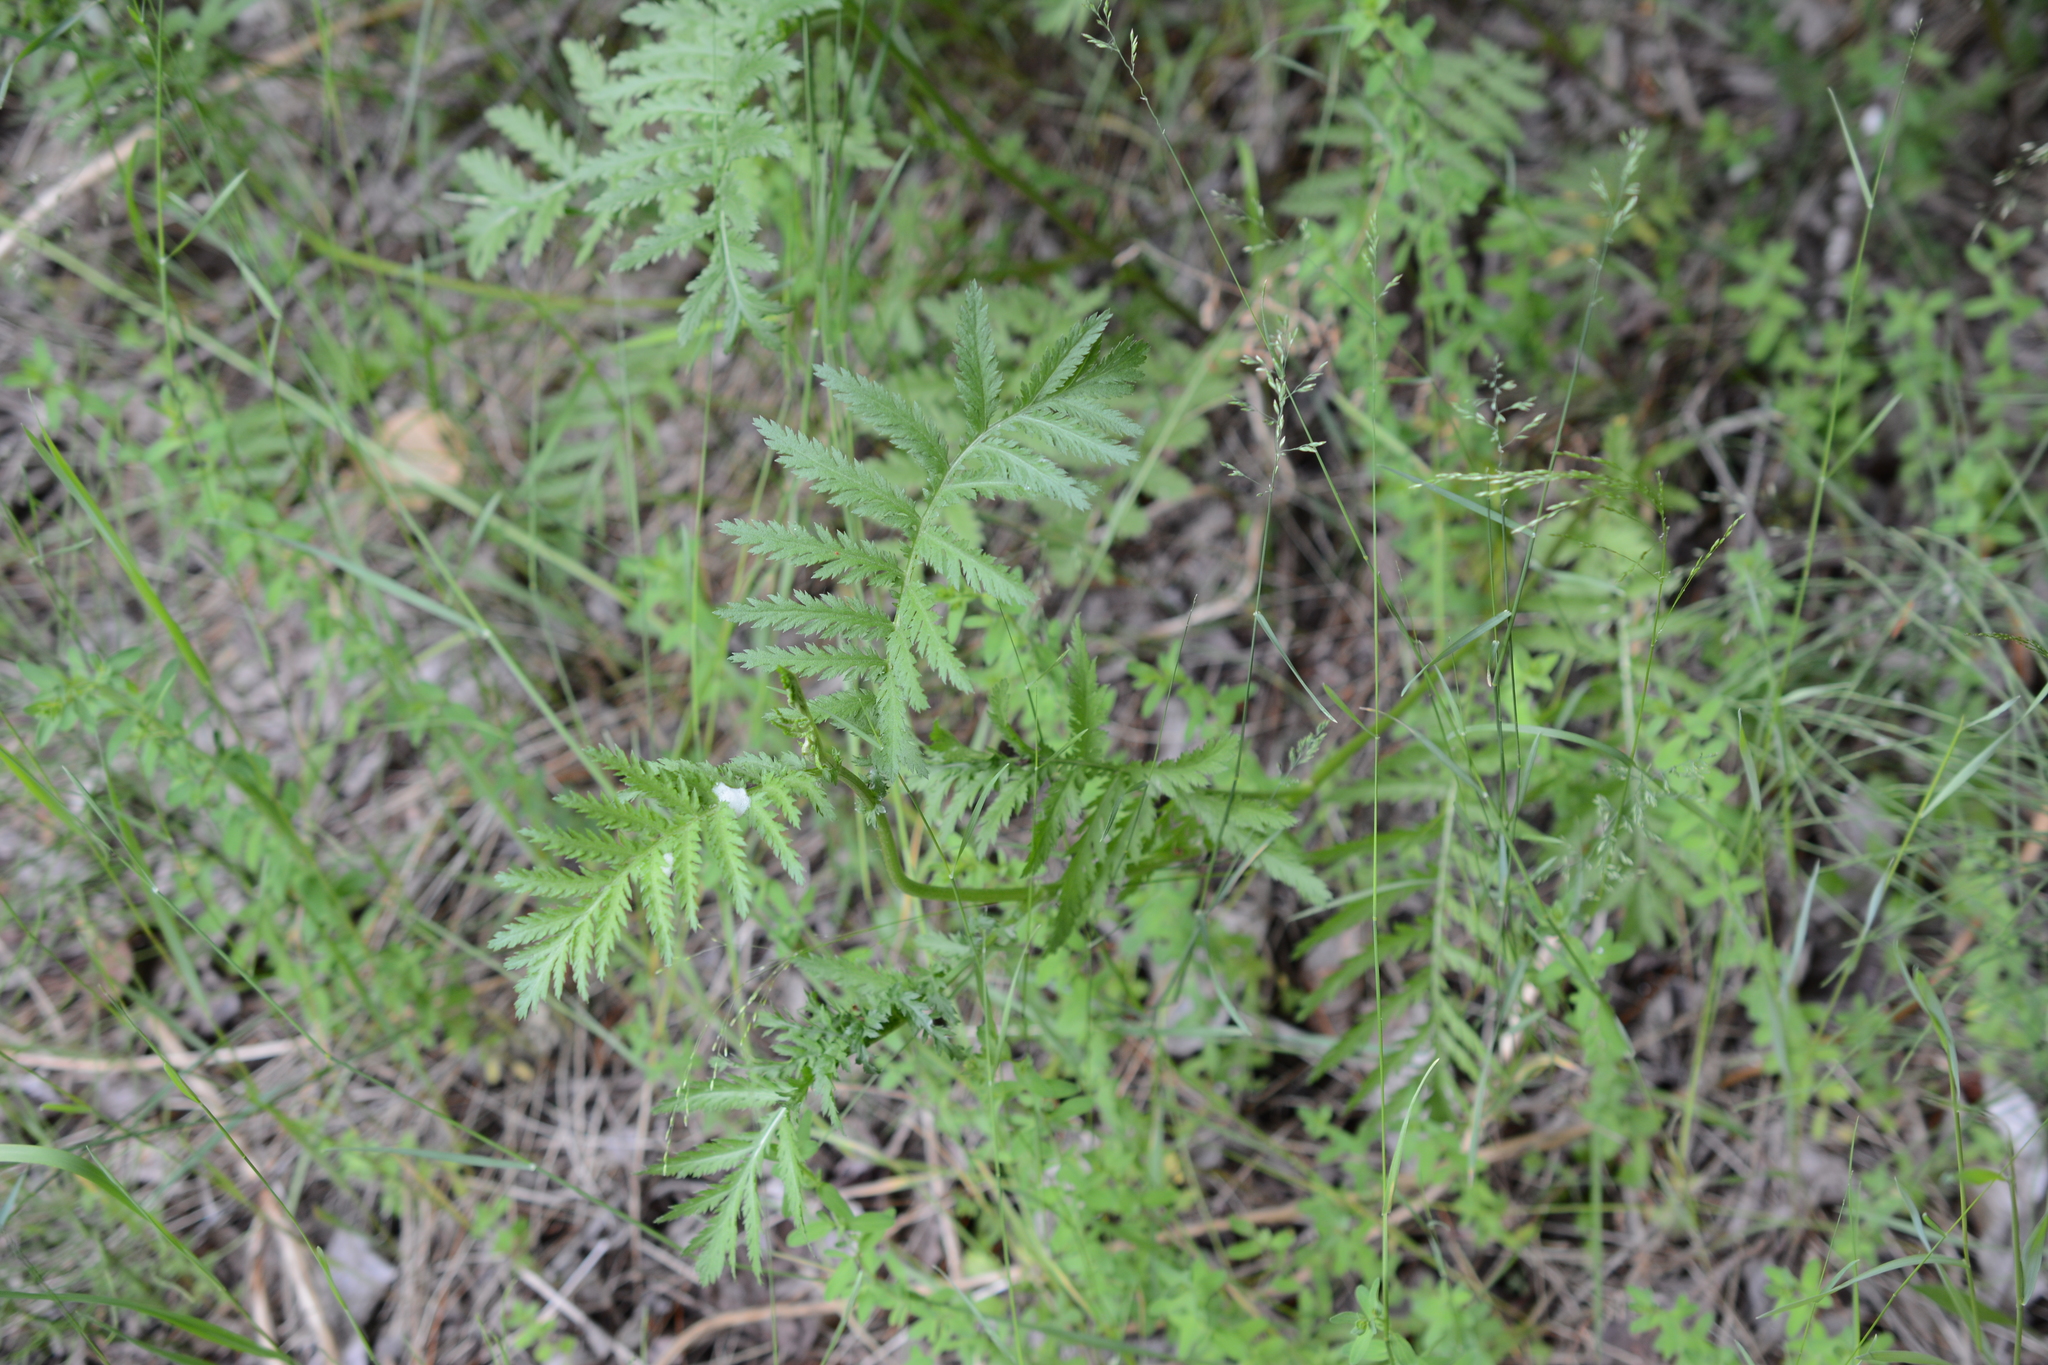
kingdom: Plantae
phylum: Tracheophyta
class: Magnoliopsida
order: Asterales
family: Asteraceae
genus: Tanacetum
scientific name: Tanacetum vulgare
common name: Common tansy
